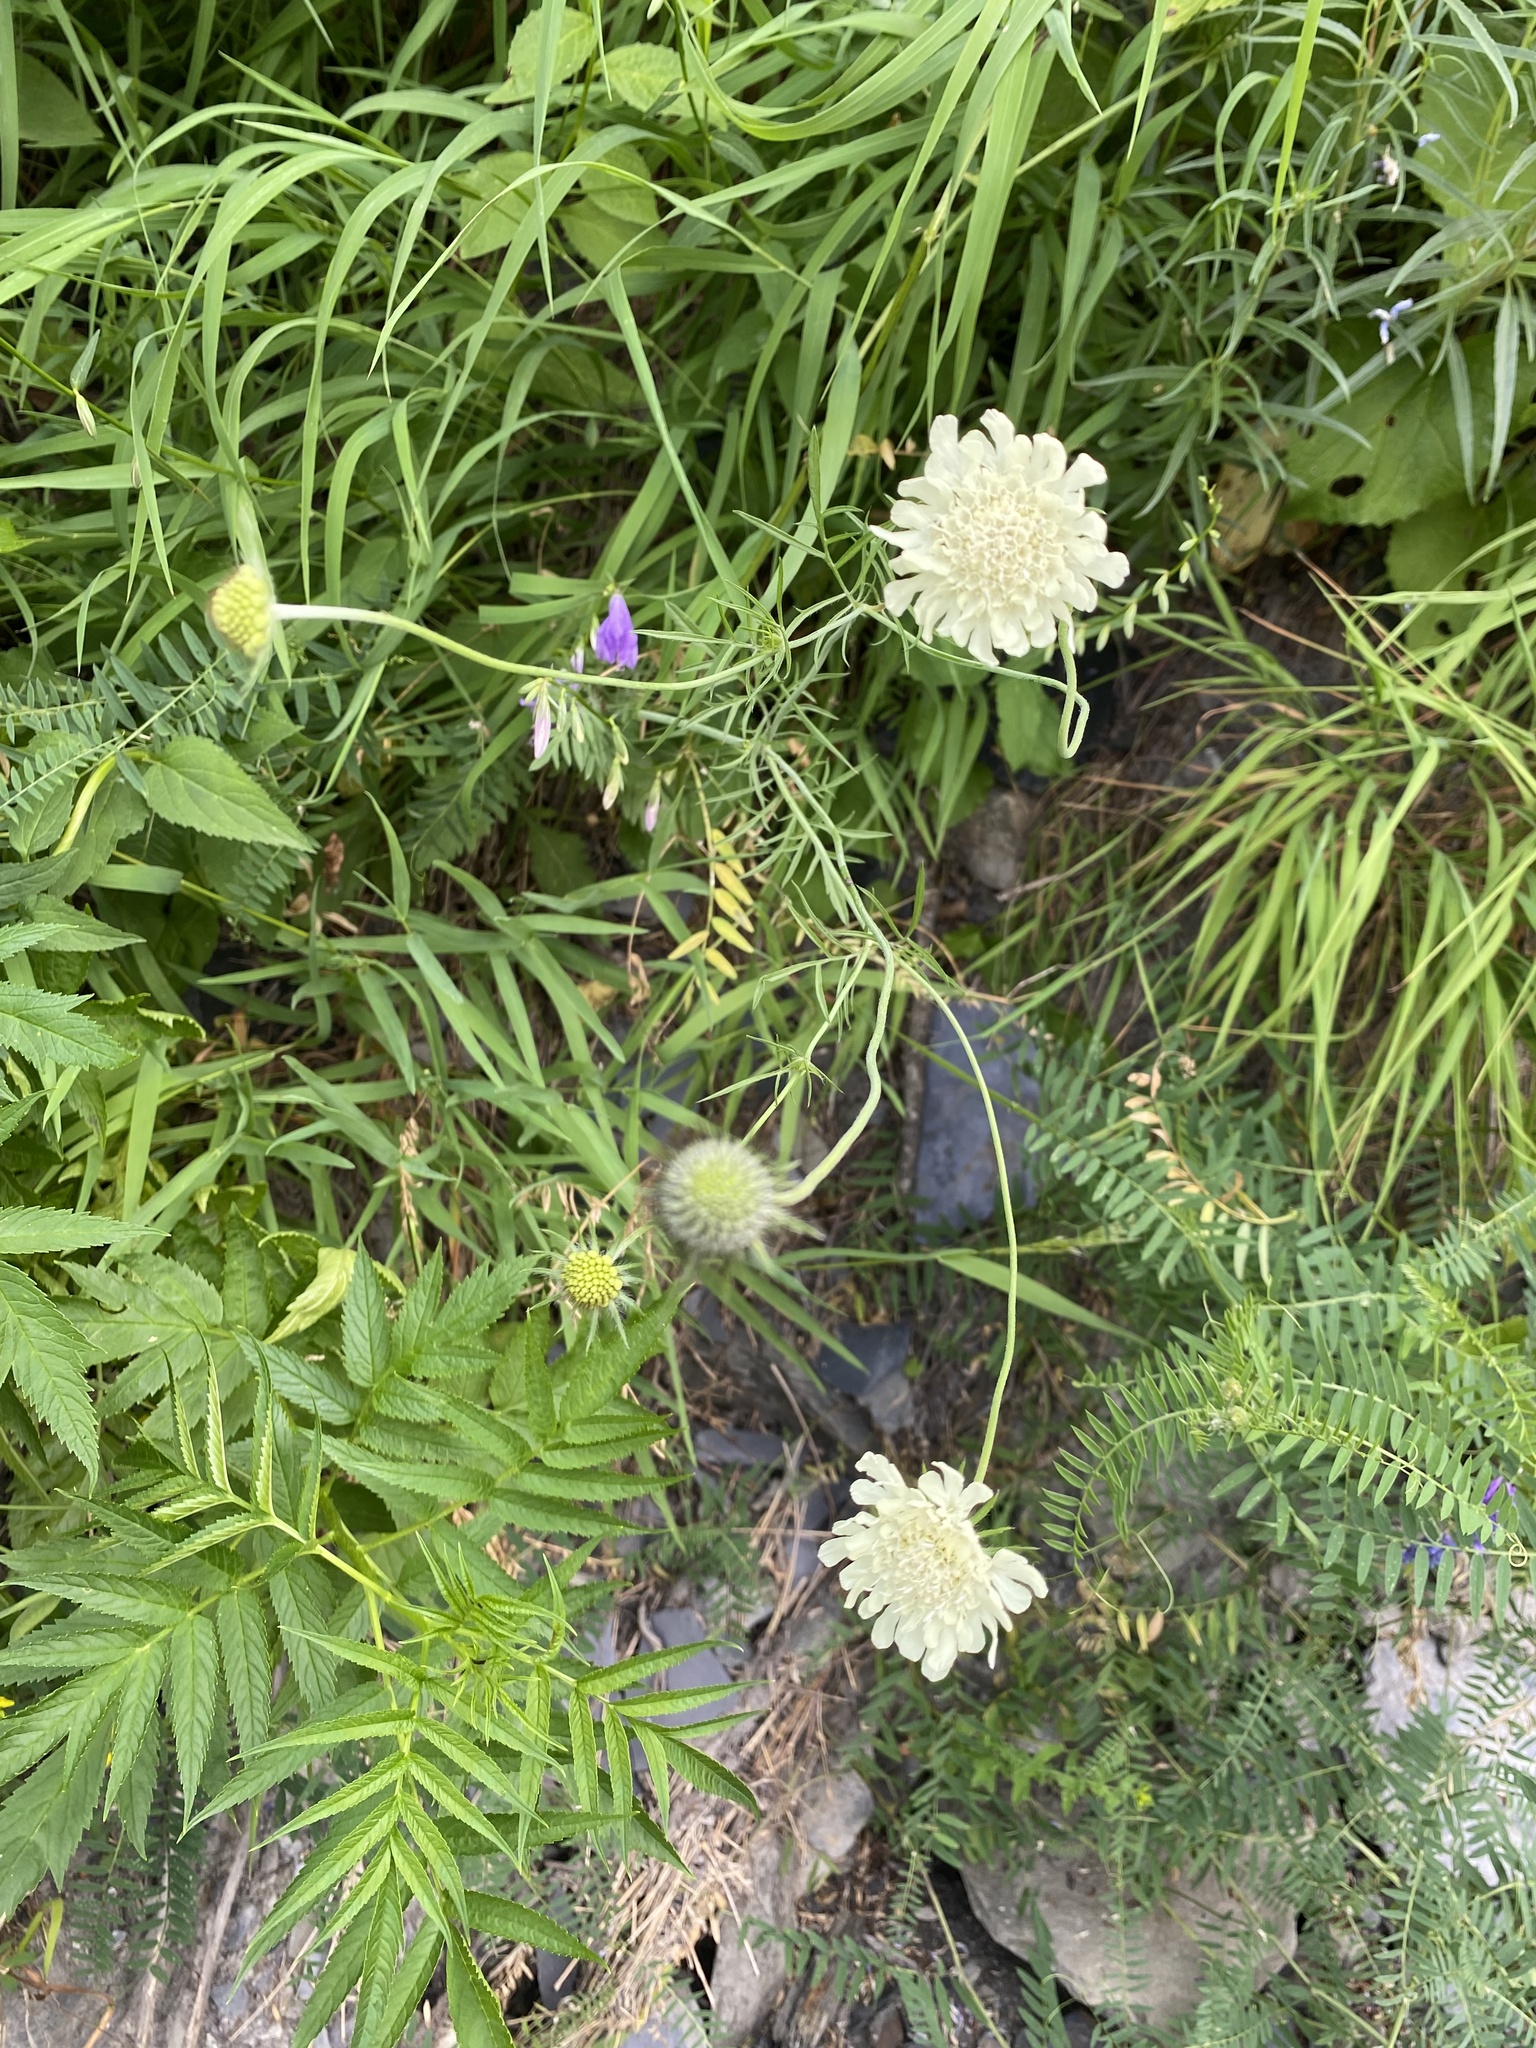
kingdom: Plantae
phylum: Tracheophyta
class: Magnoliopsida
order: Dipsacales
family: Caprifoliaceae
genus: Scabiosa
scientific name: Scabiosa ochroleuca
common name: Cream pincushions
